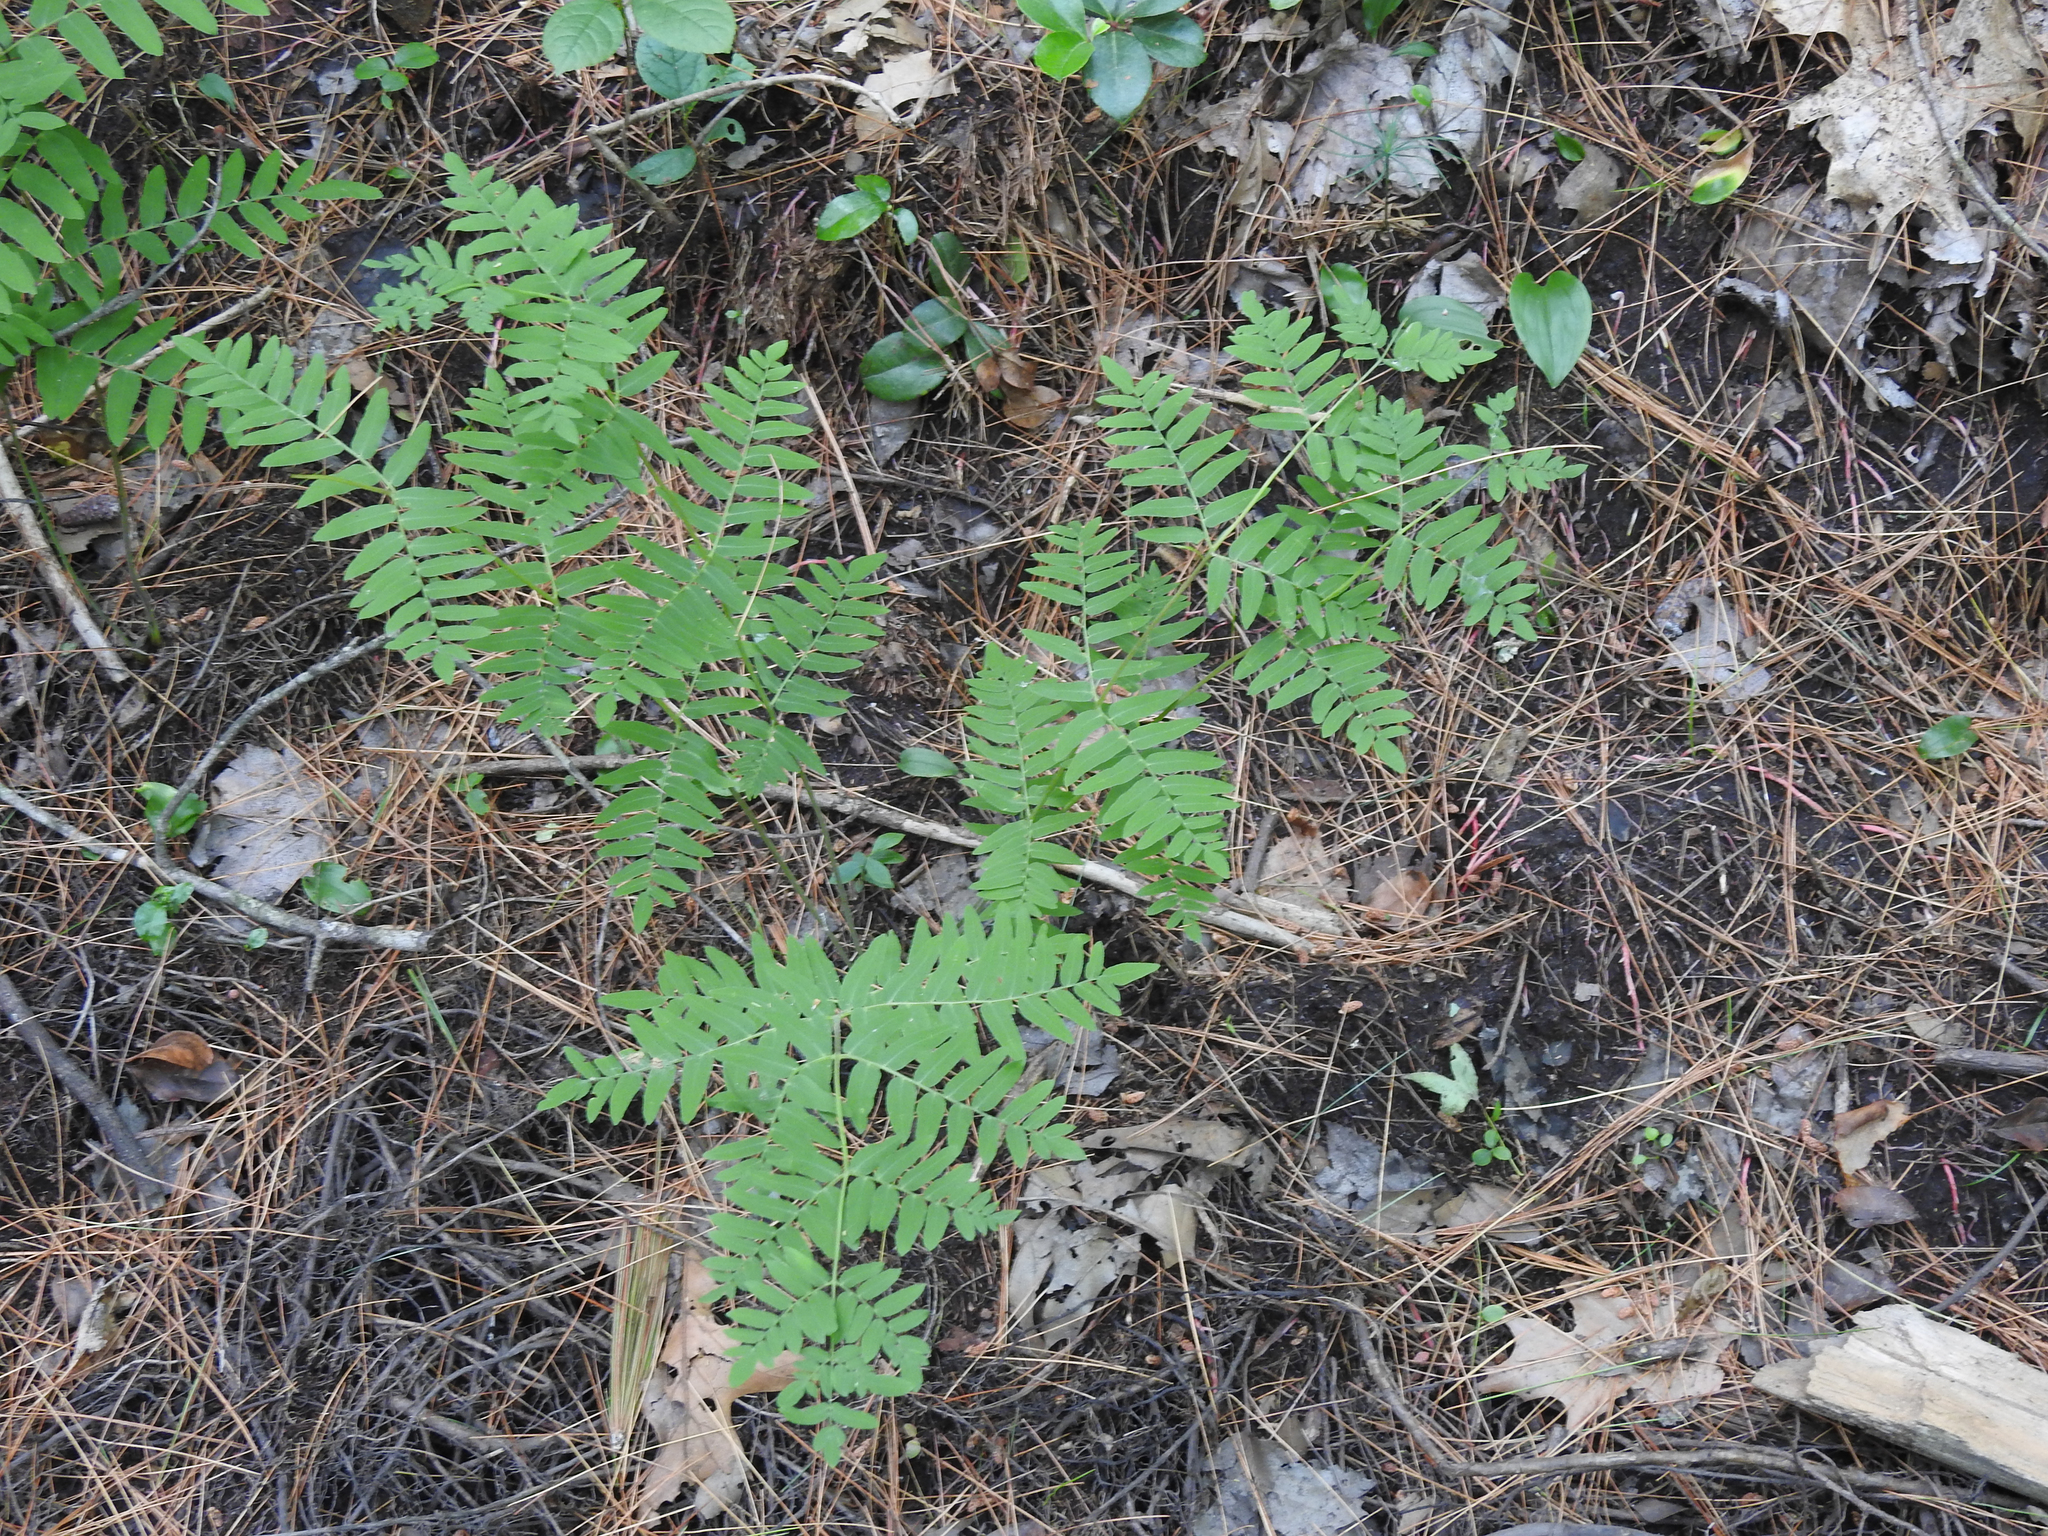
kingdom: Plantae
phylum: Tracheophyta
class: Polypodiopsida
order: Osmundales
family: Osmundaceae
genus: Osmunda
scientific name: Osmunda spectabilis
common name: American royal fern
